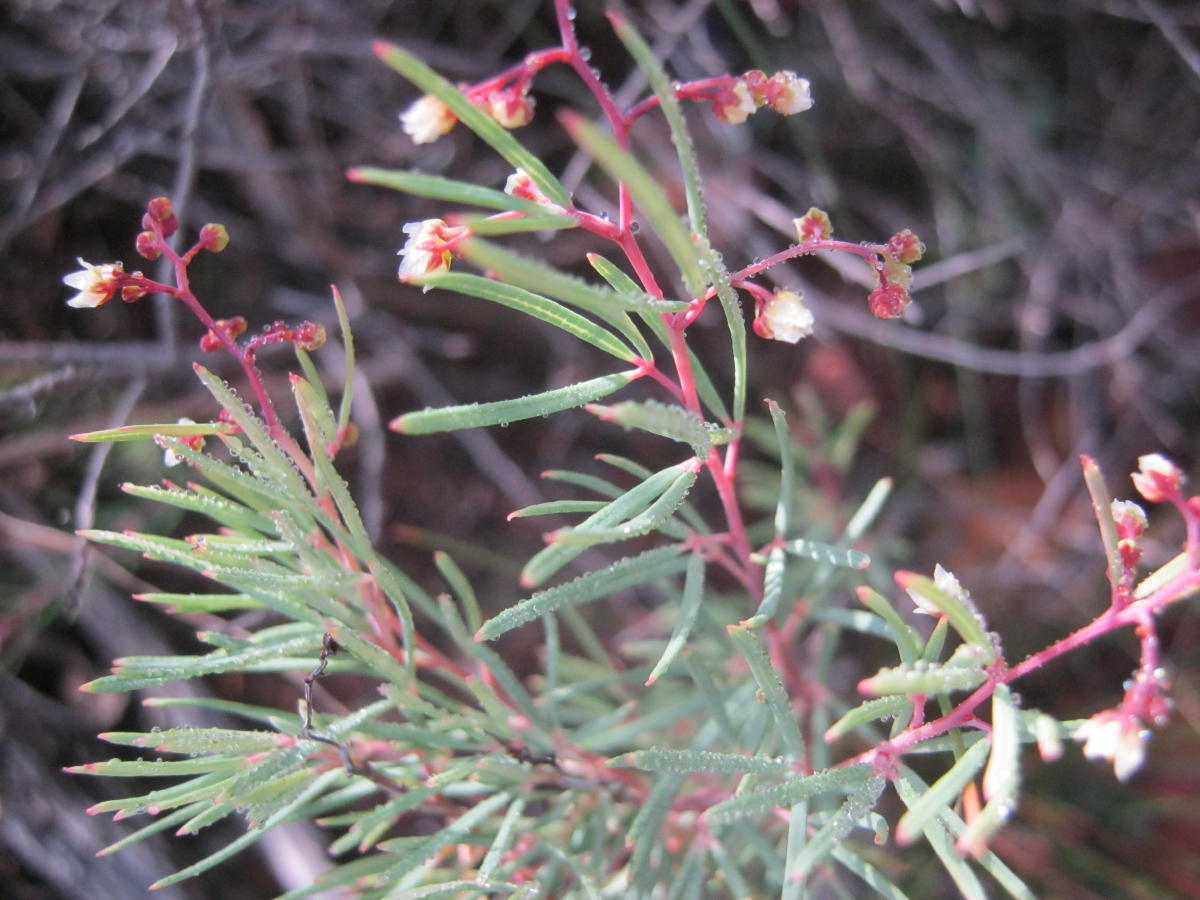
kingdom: Plantae
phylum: Tracheophyta
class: Magnoliopsida
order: Sapindales
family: Anacardiaceae
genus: Searsia
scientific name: Searsia rosmarinifolia
